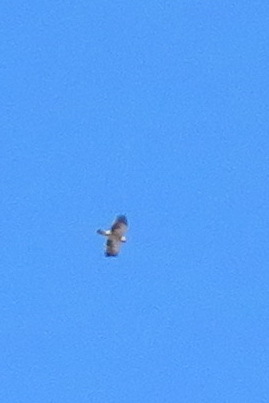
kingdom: Animalia
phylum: Chordata
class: Aves
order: Accipitriformes
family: Accipitridae
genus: Hieraaetus
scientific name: Hieraaetus pennatus
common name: Booted eagle
